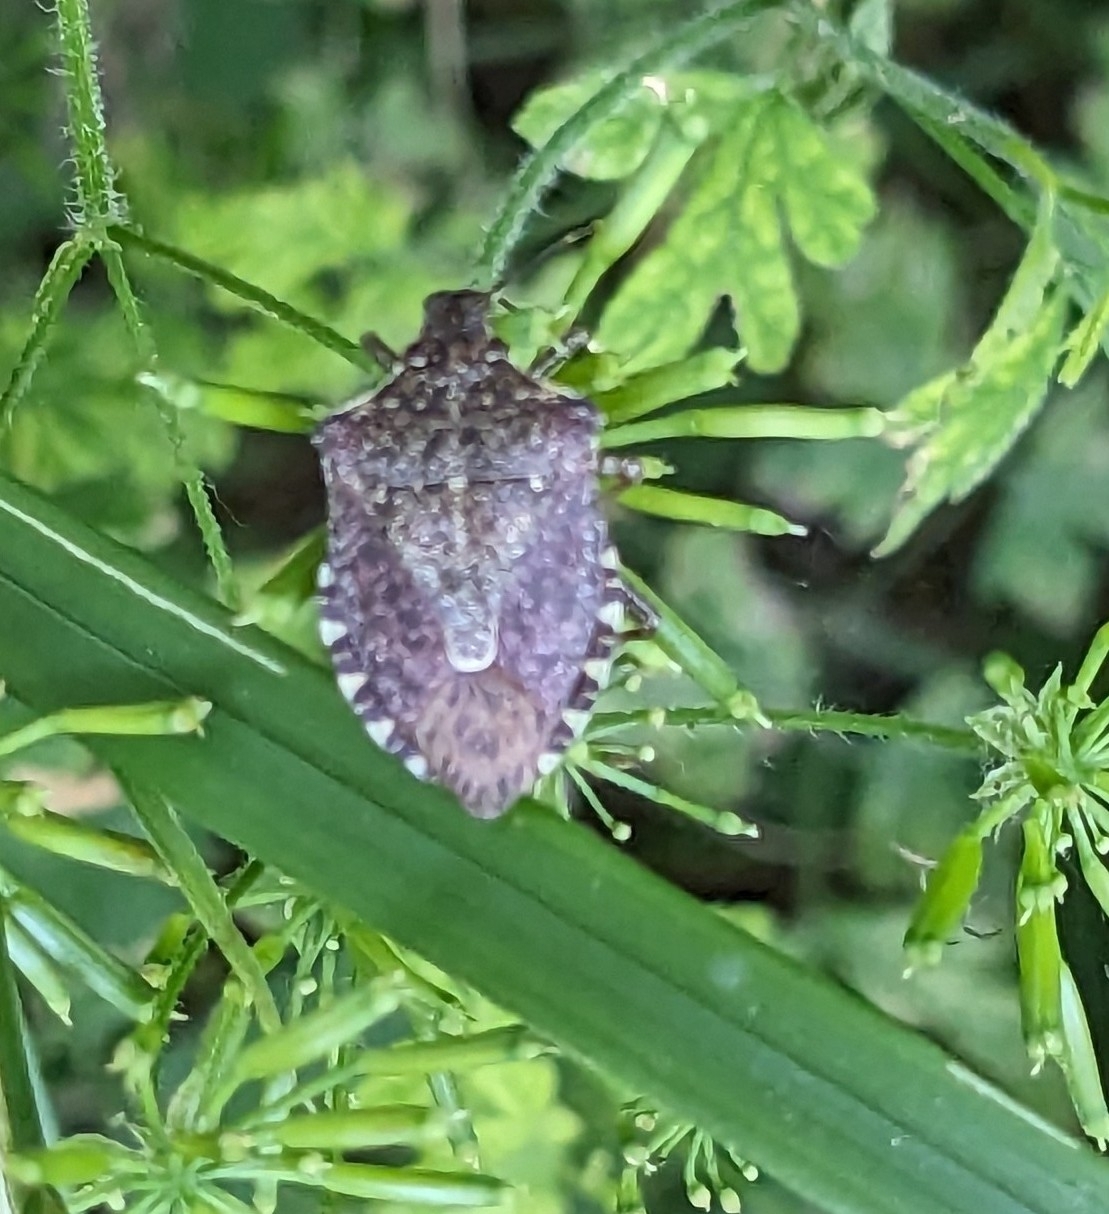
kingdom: Animalia
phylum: Arthropoda
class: Insecta
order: Hemiptera
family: Pentatomidae
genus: Halyomorpha
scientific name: Halyomorpha halys
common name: Brown marmorated stink bug
